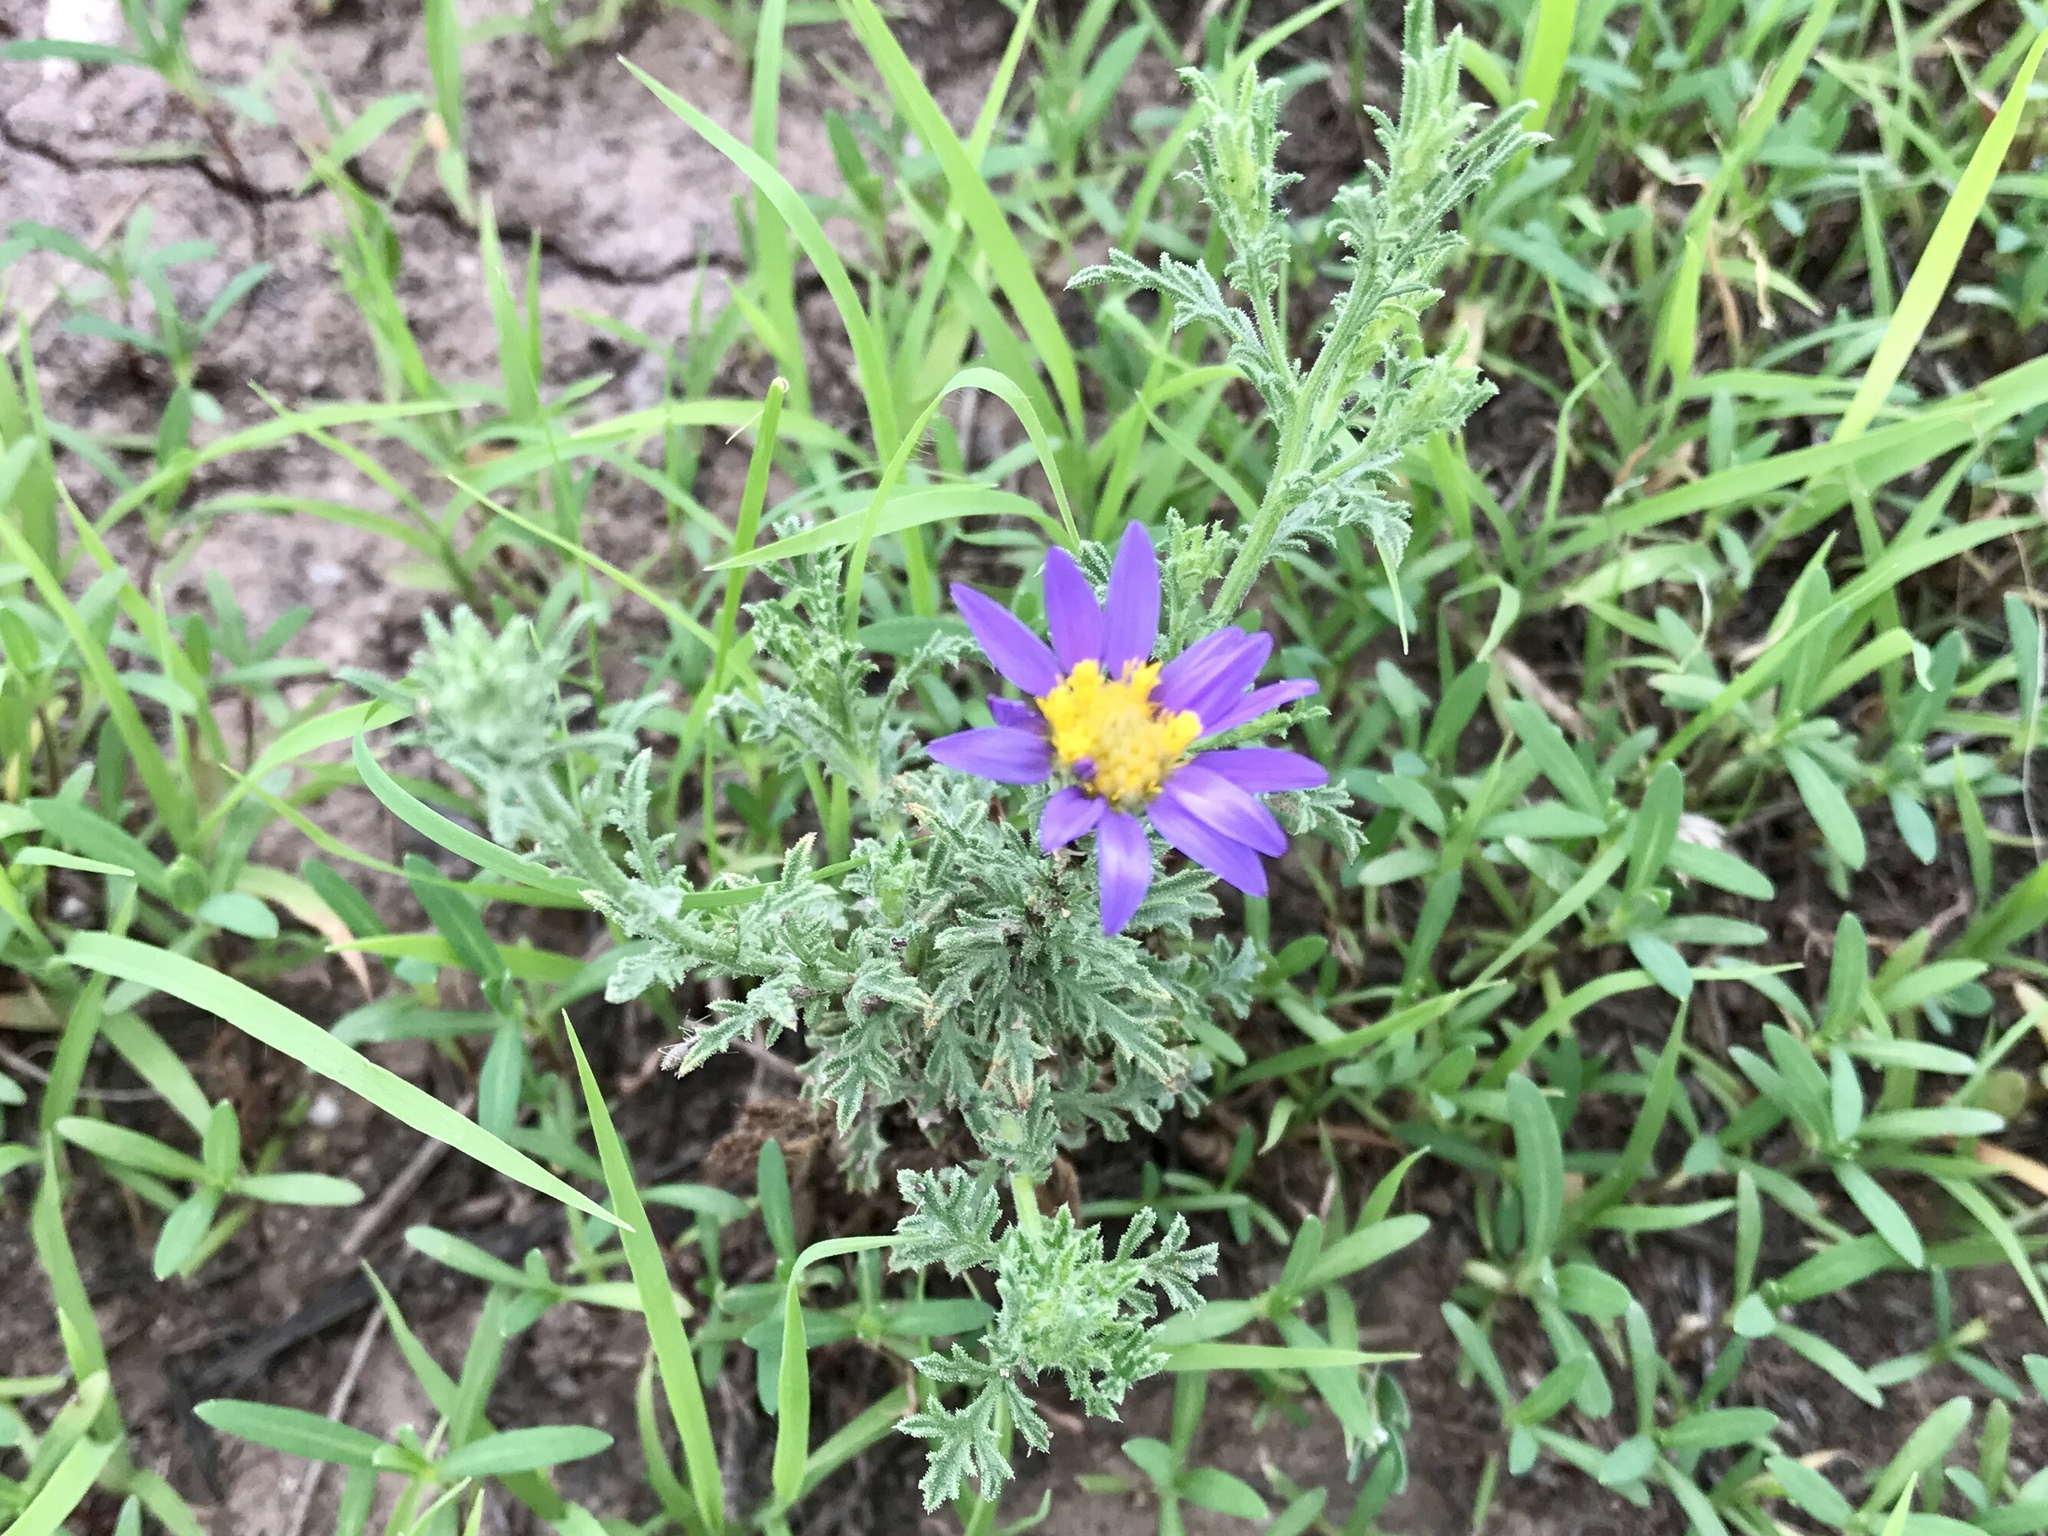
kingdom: Plantae
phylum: Tracheophyta
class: Magnoliopsida
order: Asterales
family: Asteraceae
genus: Machaeranthera
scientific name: Machaeranthera tagetina
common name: Mesa tansy-aster
